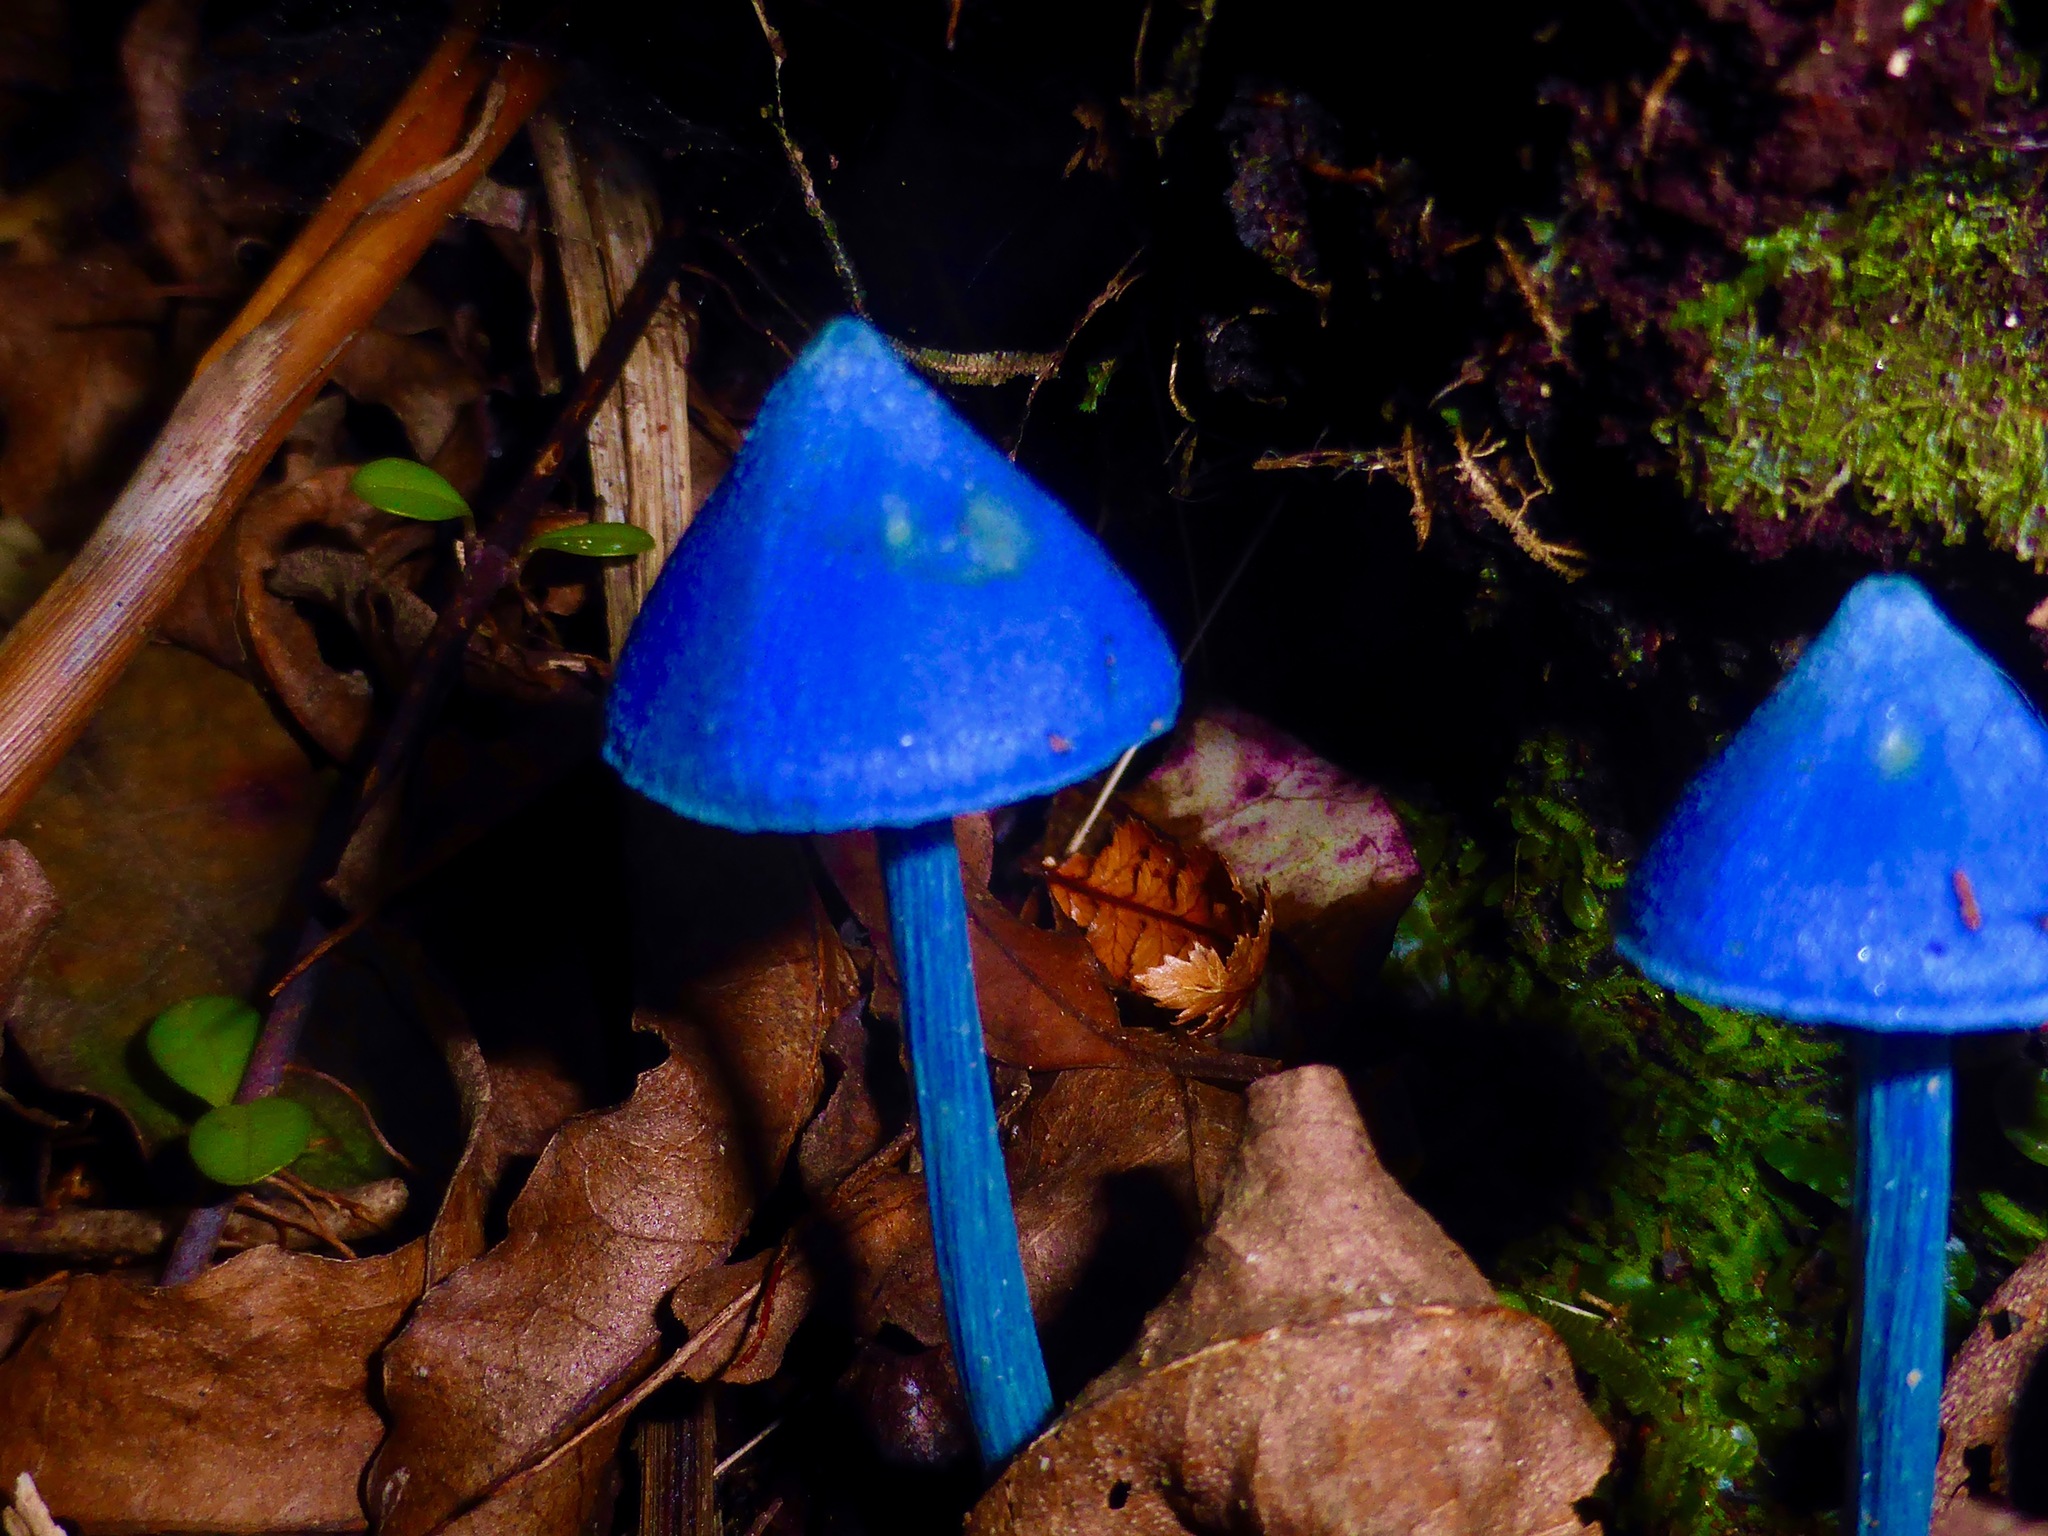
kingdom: Fungi
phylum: Basidiomycota
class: Agaricomycetes
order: Agaricales
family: Entolomataceae
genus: Entoloma
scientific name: Entoloma hochstetteri
